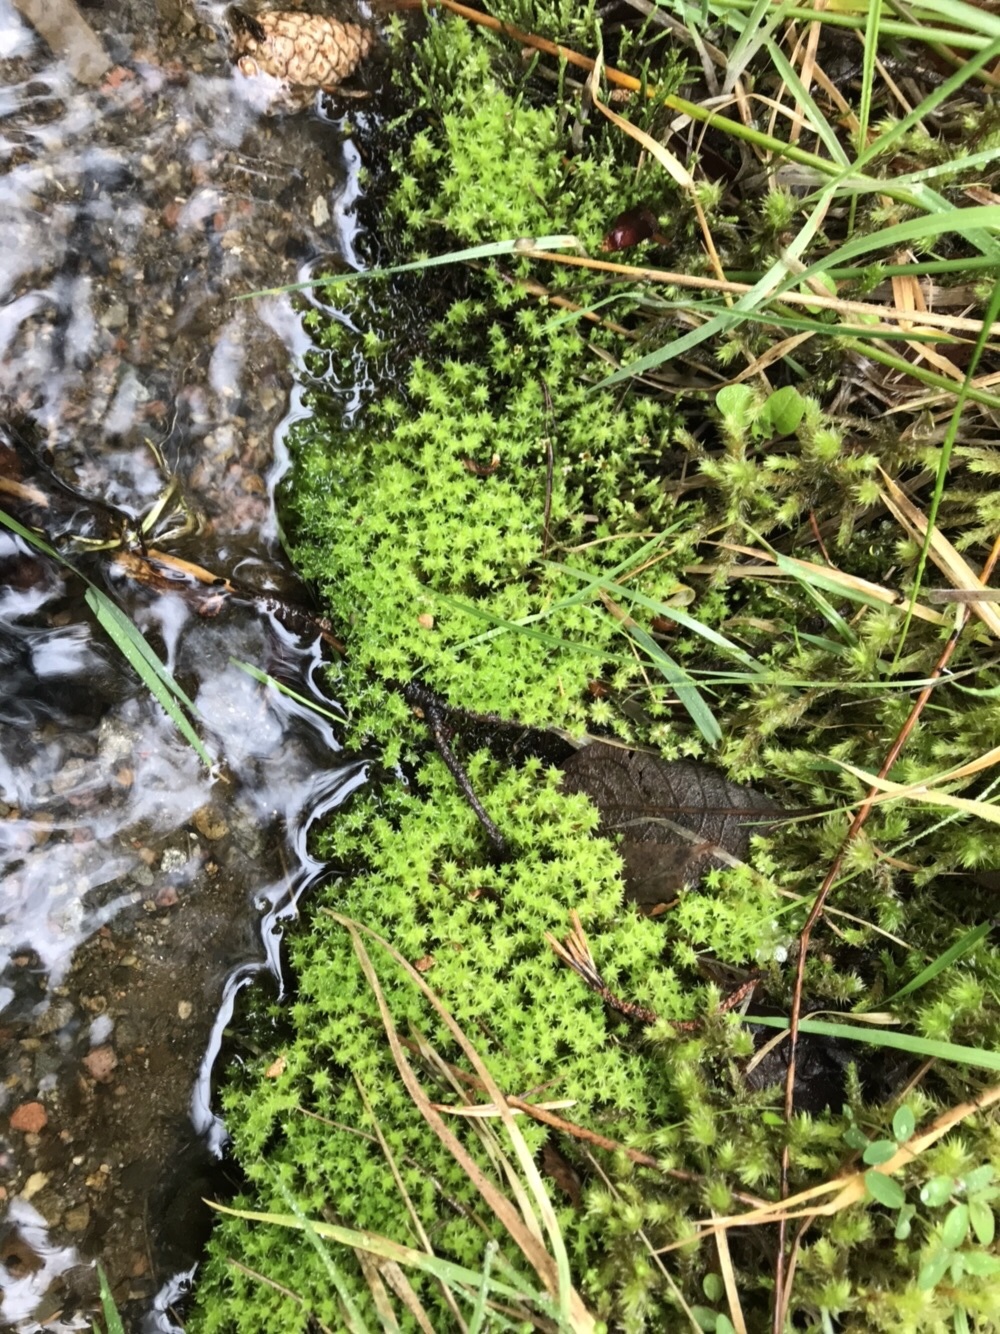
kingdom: Plantae
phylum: Bryophyta
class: Bryopsida
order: Dicranales
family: Aongstroemiaceae
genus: Diobelonella
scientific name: Diobelonella palustris
